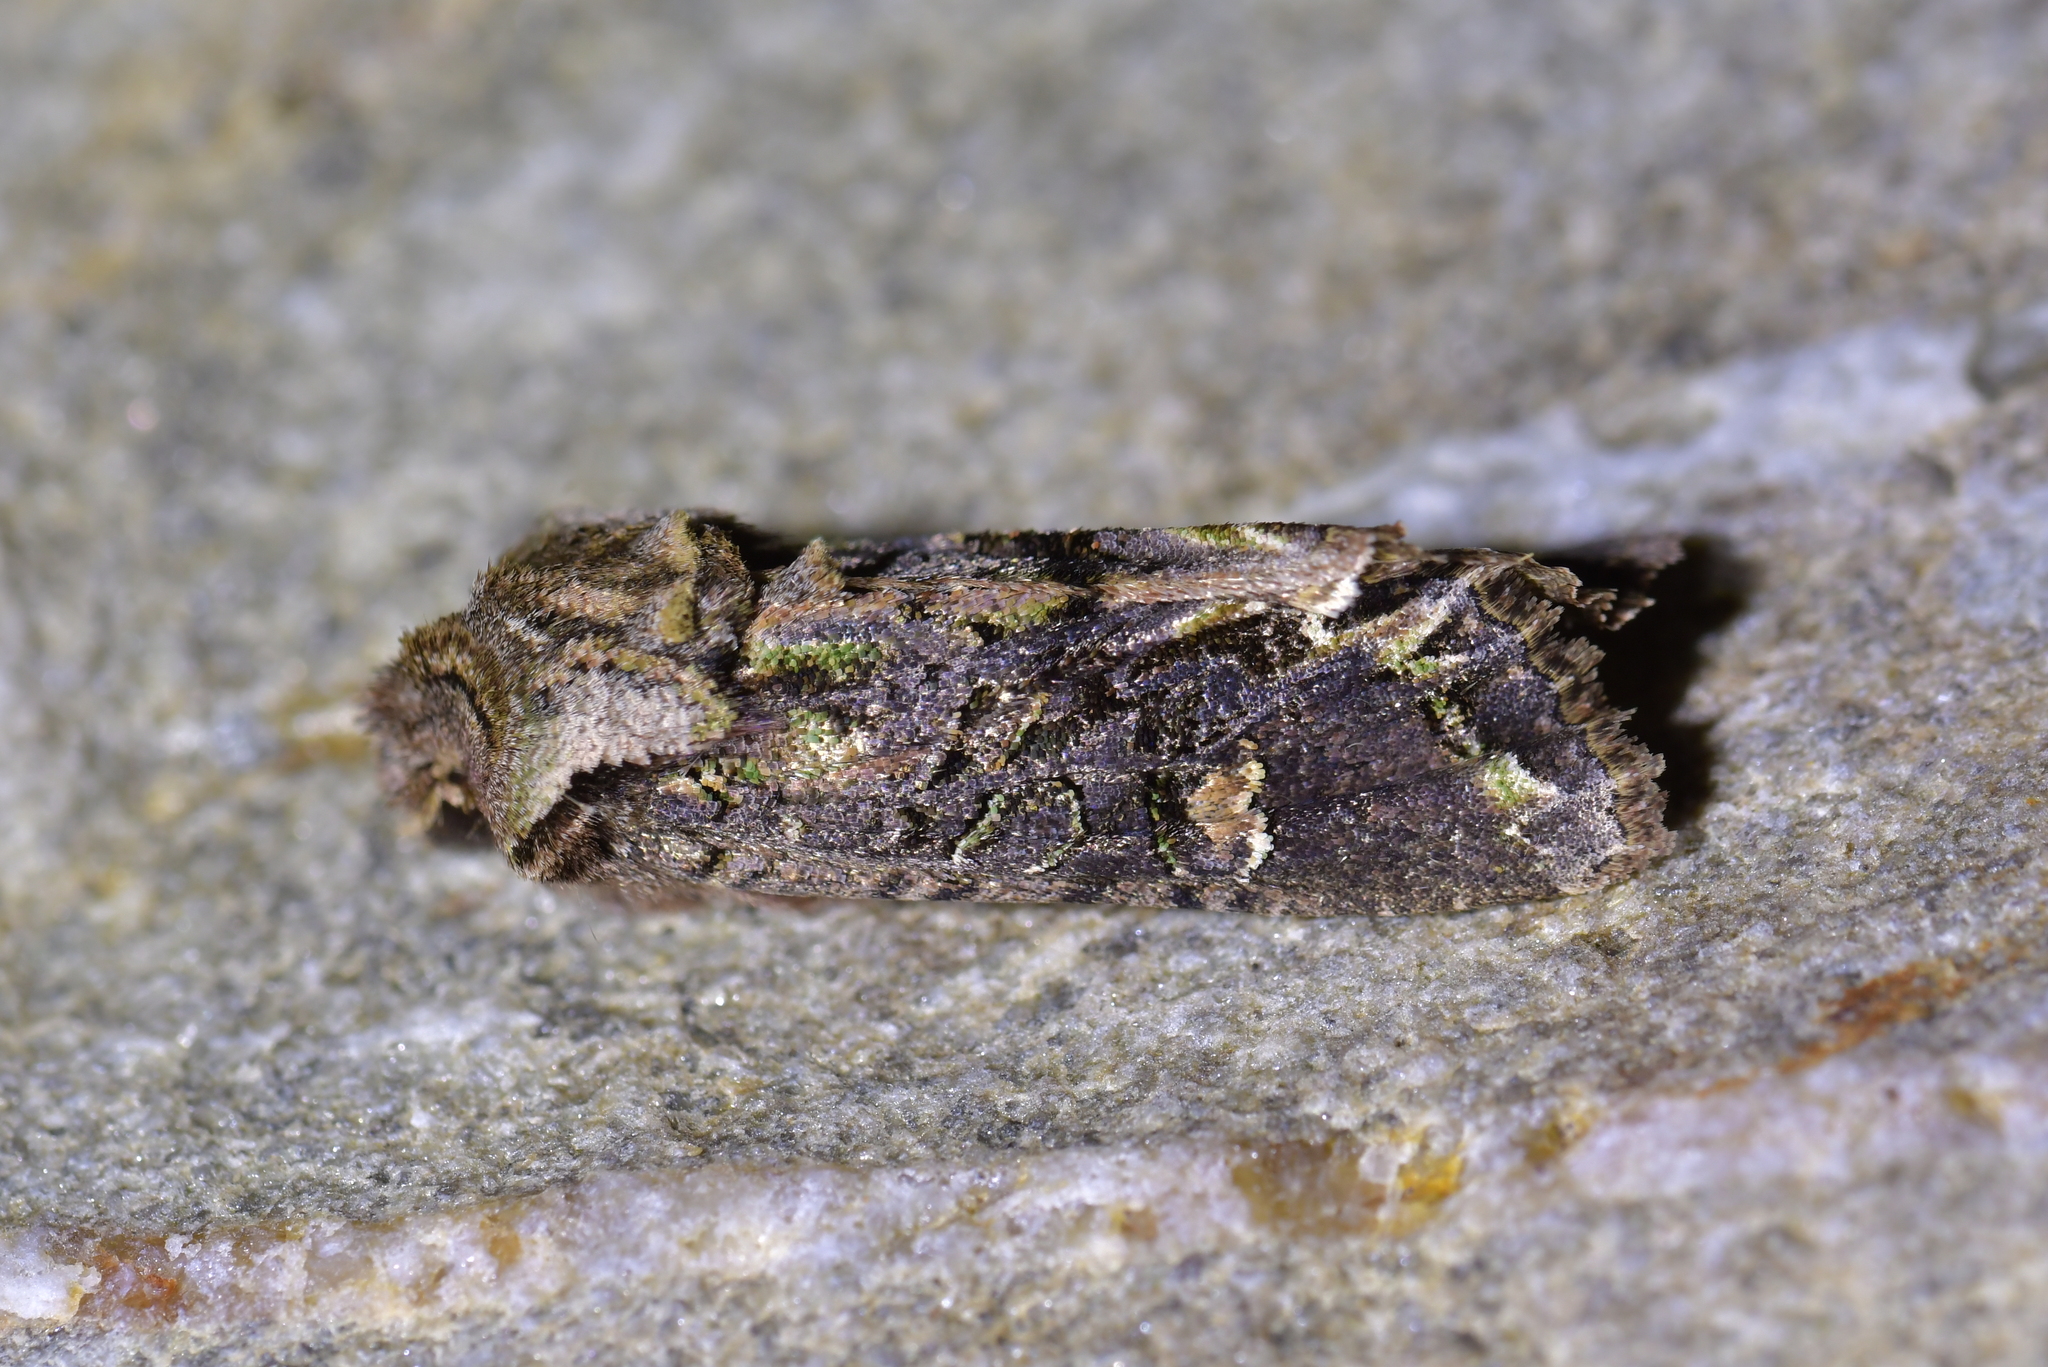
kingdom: Animalia
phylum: Arthropoda
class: Insecta
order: Lepidoptera
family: Noctuidae
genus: Ichneutica
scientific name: Ichneutica skelloni
